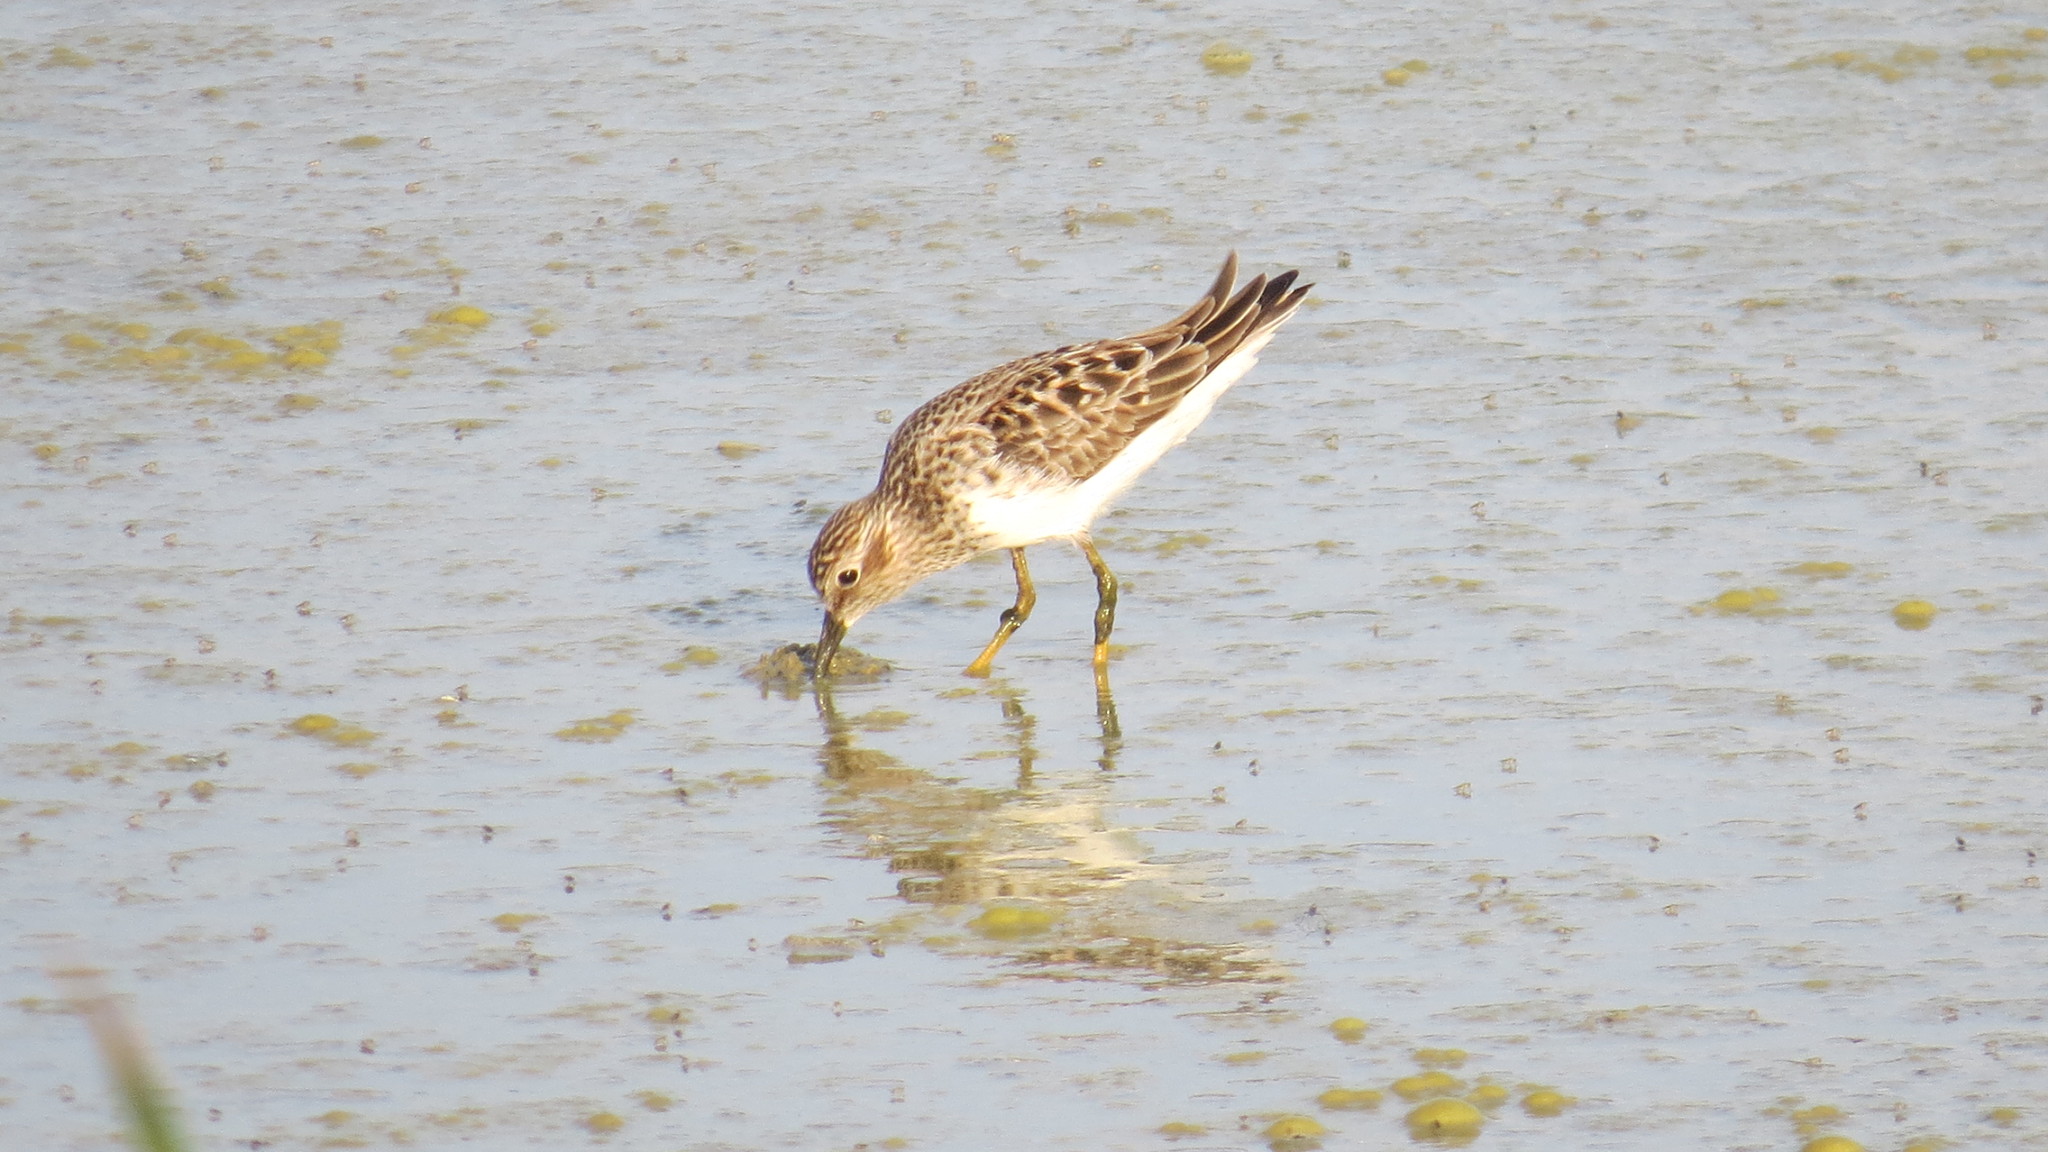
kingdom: Animalia
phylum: Chordata
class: Aves
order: Charadriiformes
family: Scolopacidae
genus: Calidris
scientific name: Calidris minutilla
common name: Least sandpiper
